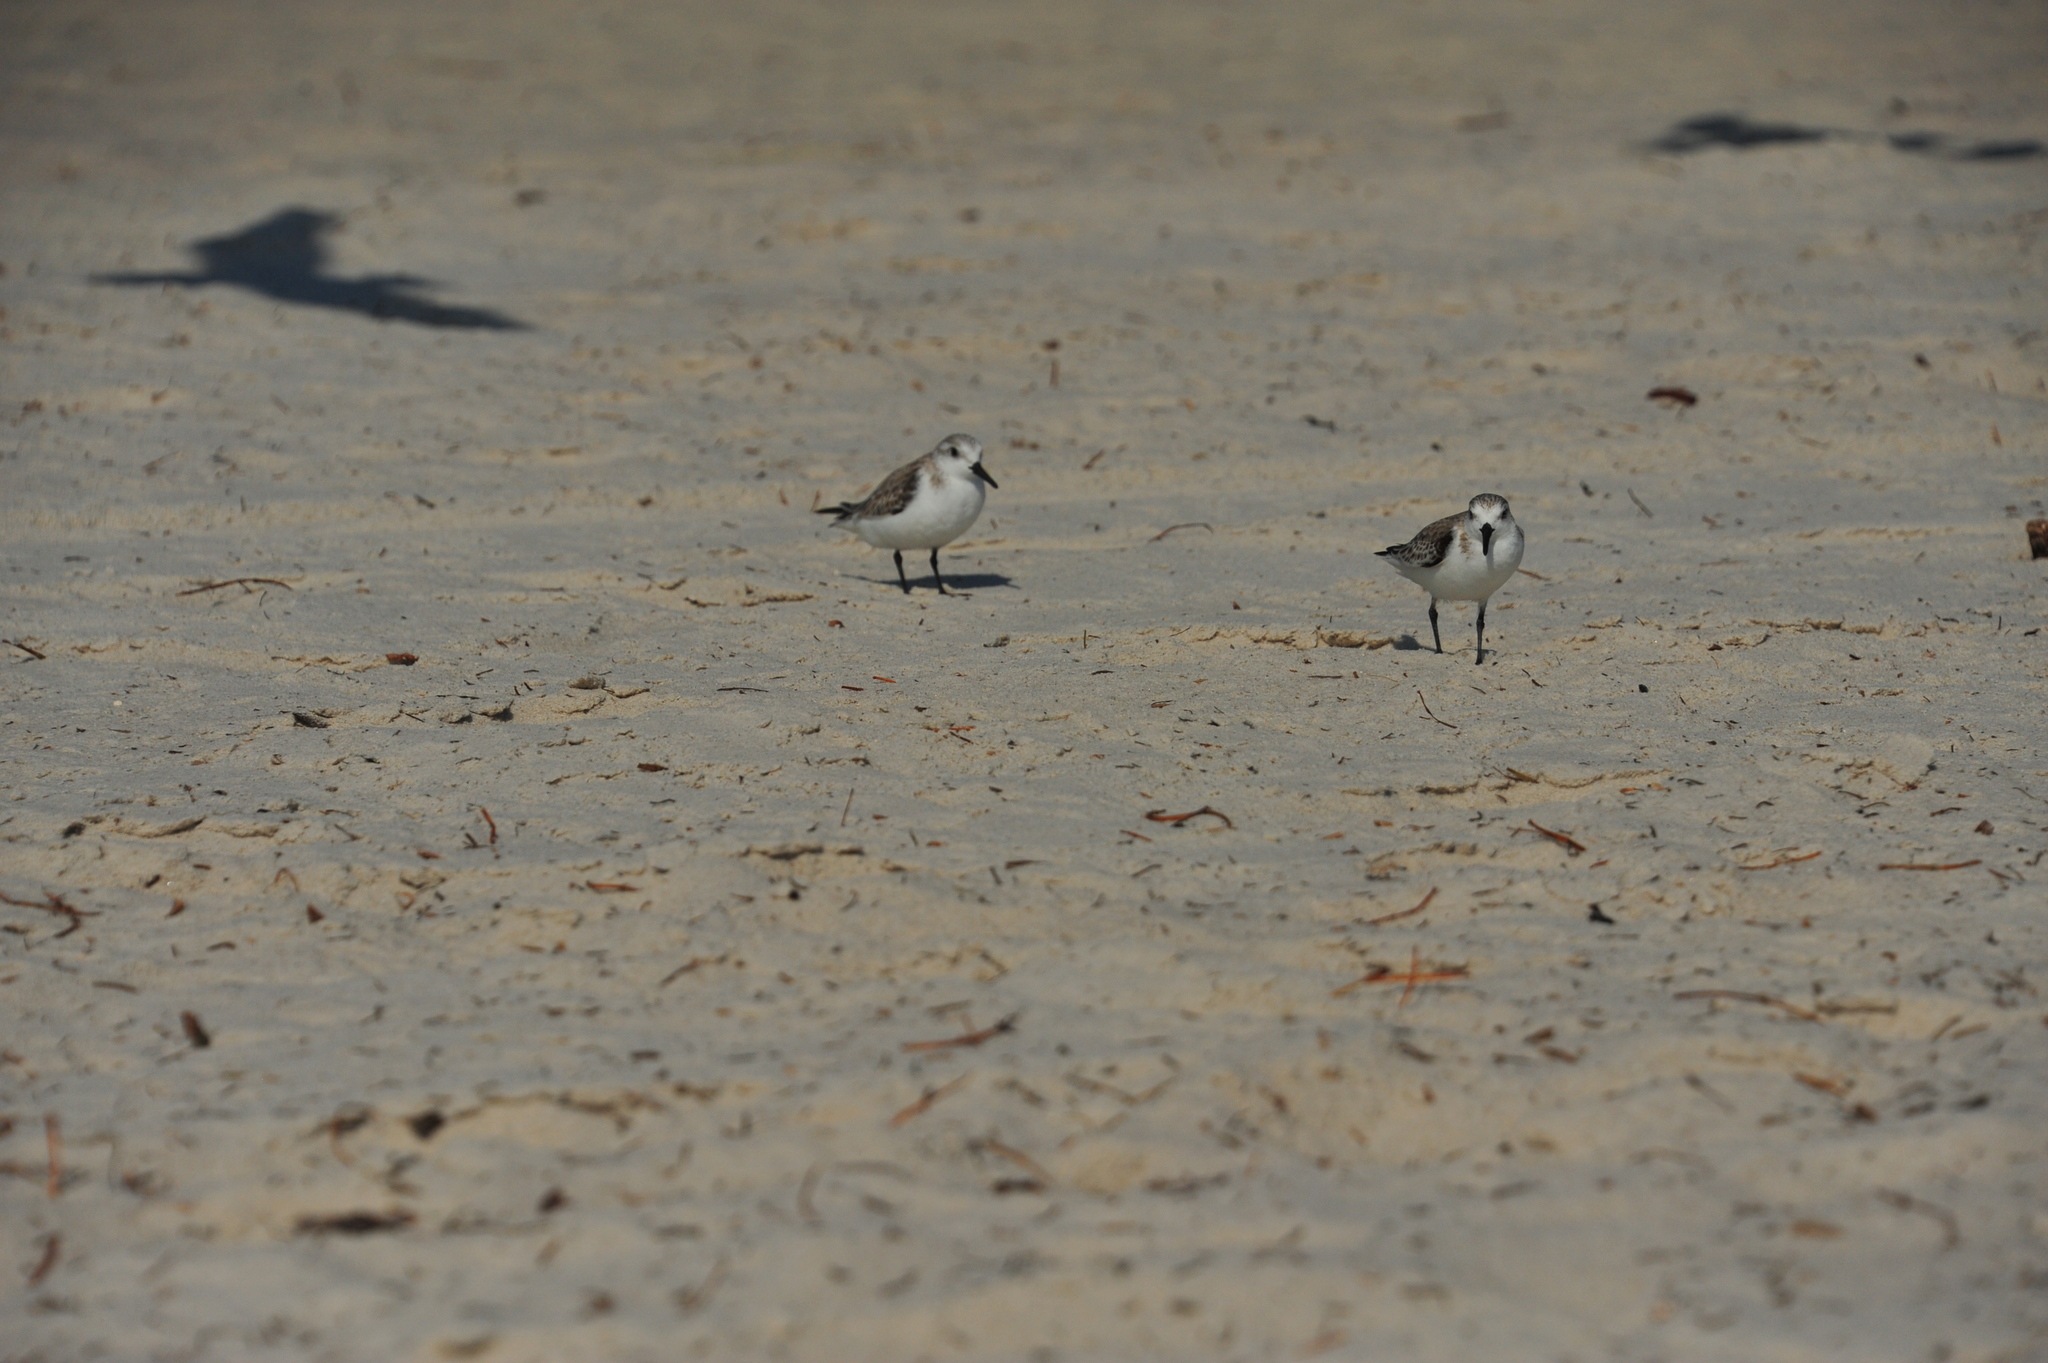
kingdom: Animalia
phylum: Chordata
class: Aves
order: Charadriiformes
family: Scolopacidae
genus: Calidris
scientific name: Calidris alba
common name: Sanderling
